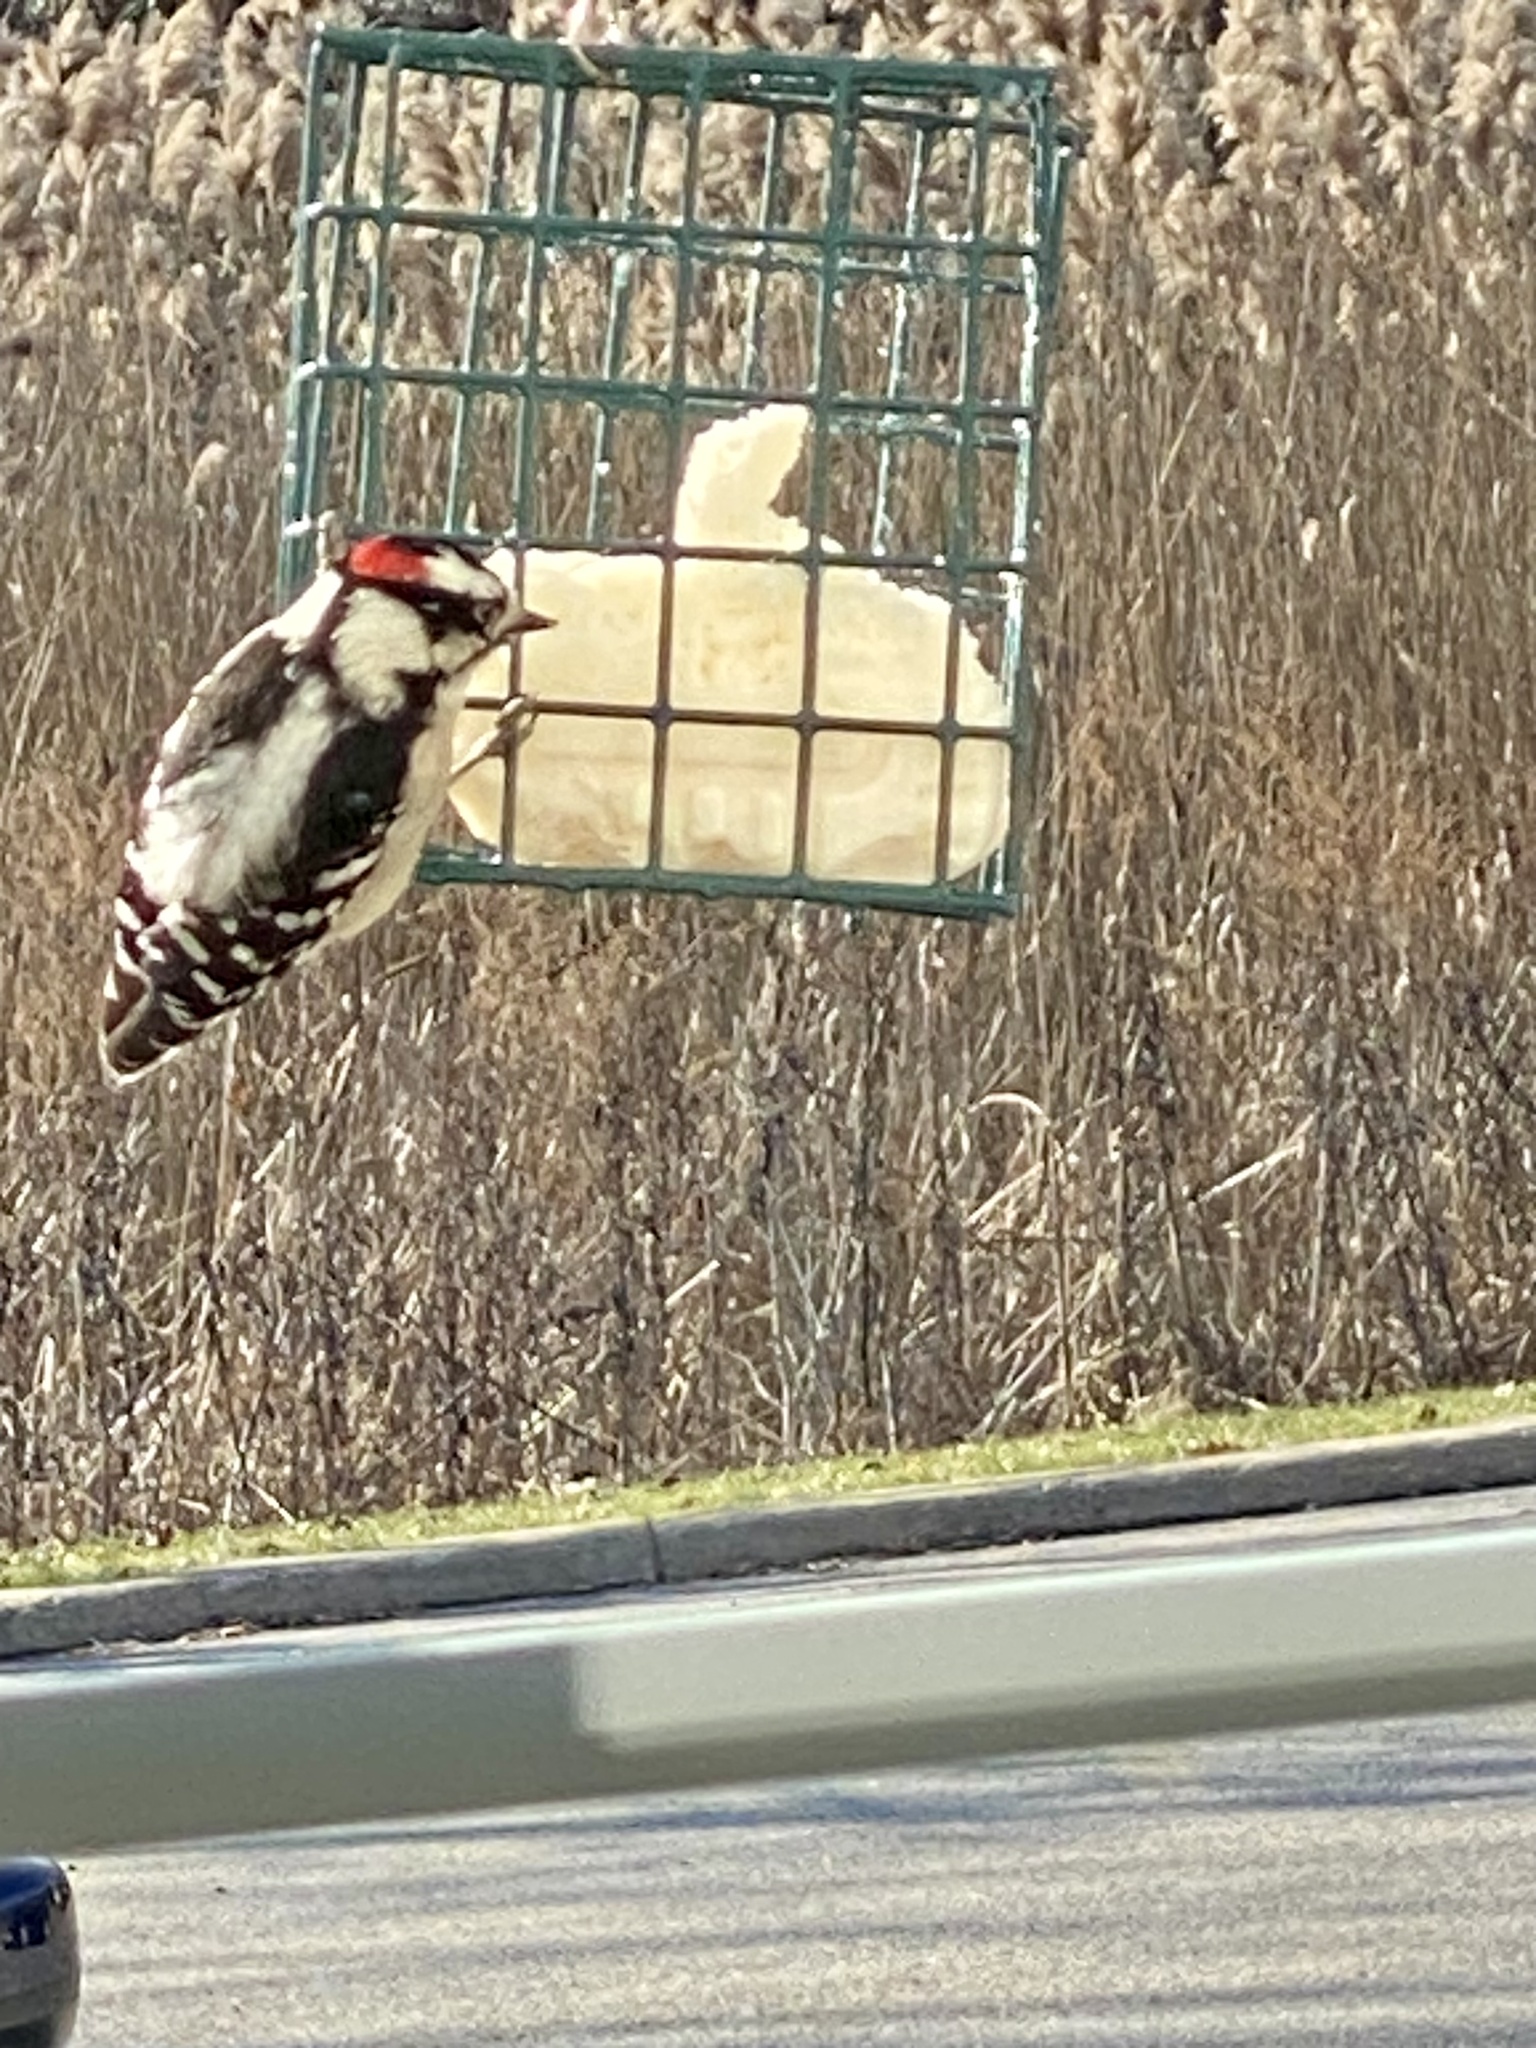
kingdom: Animalia
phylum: Chordata
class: Aves
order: Piciformes
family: Picidae
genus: Dryobates
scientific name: Dryobates pubescens
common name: Downy woodpecker
